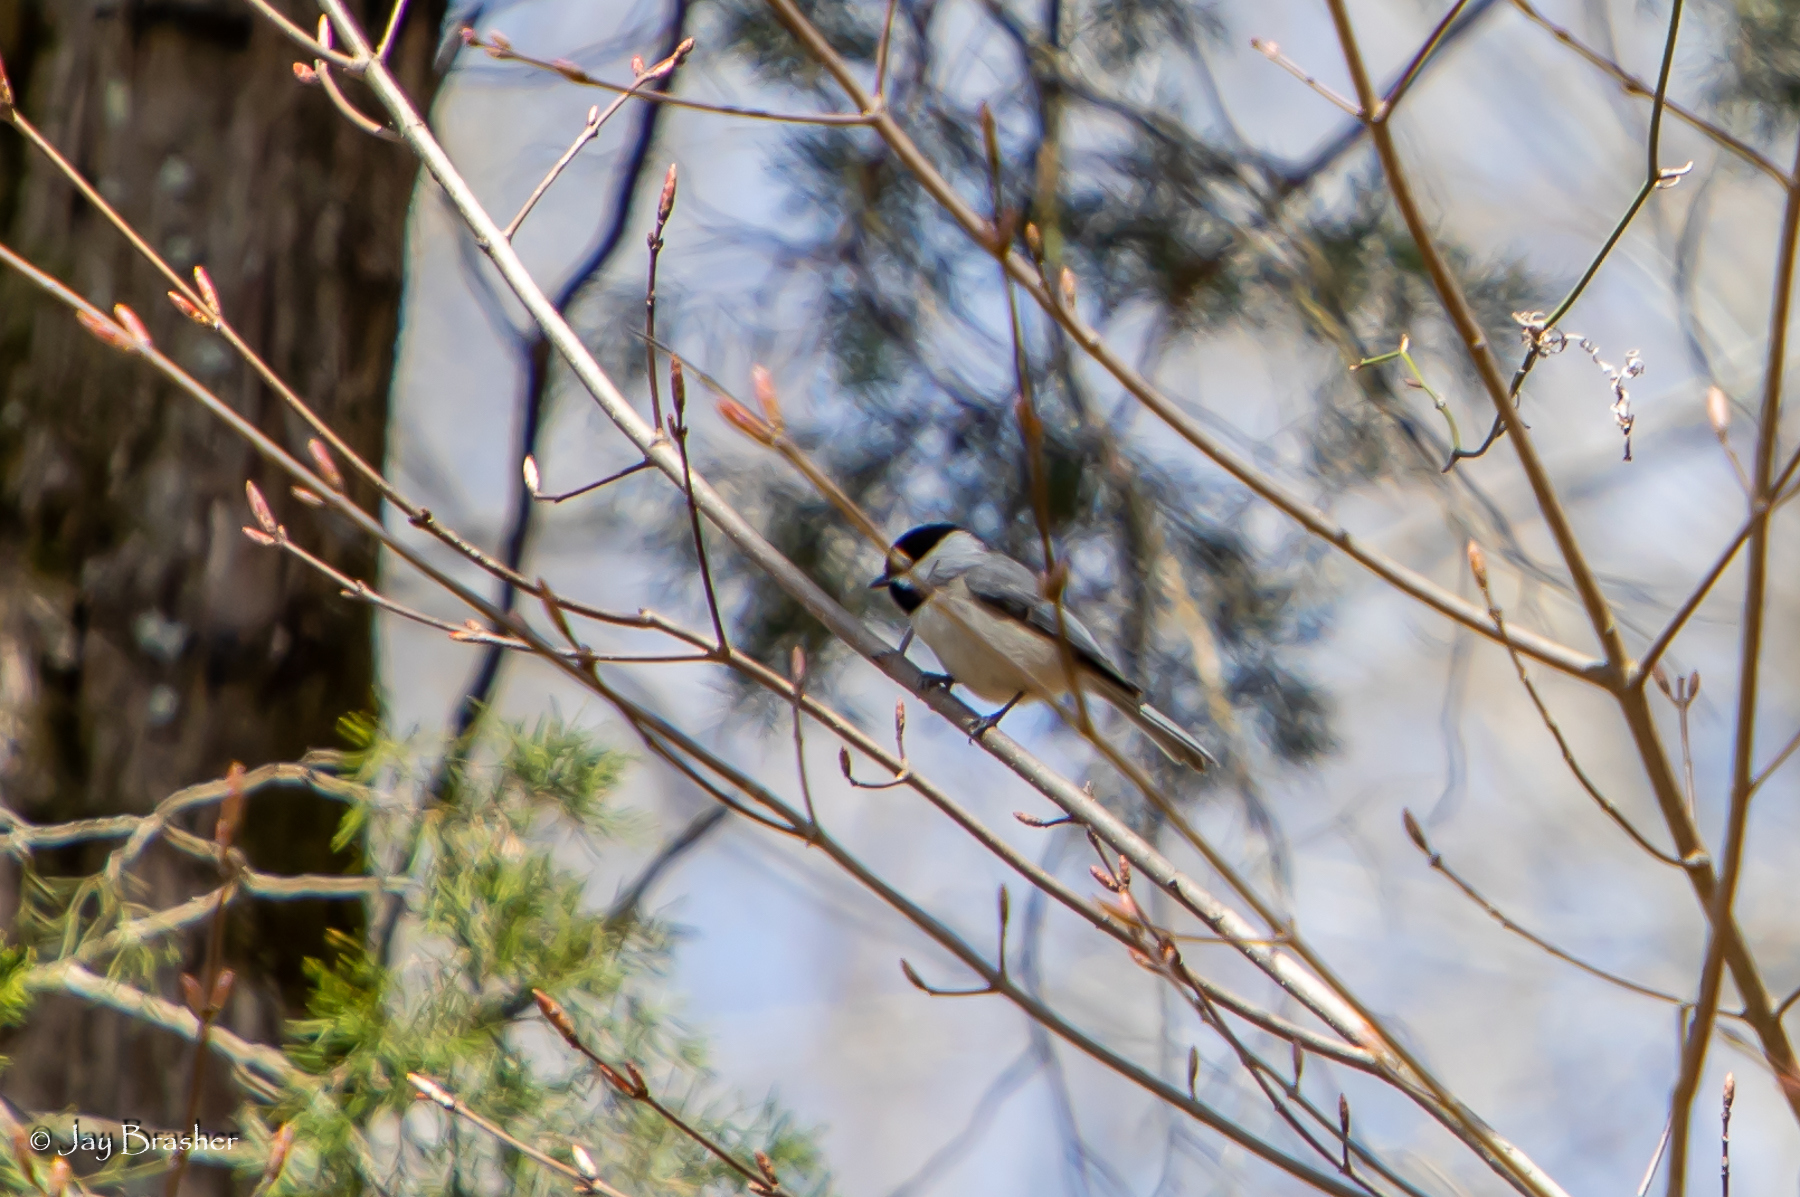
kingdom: Animalia
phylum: Chordata
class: Aves
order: Passeriformes
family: Paridae
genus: Poecile
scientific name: Poecile carolinensis
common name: Carolina chickadee
